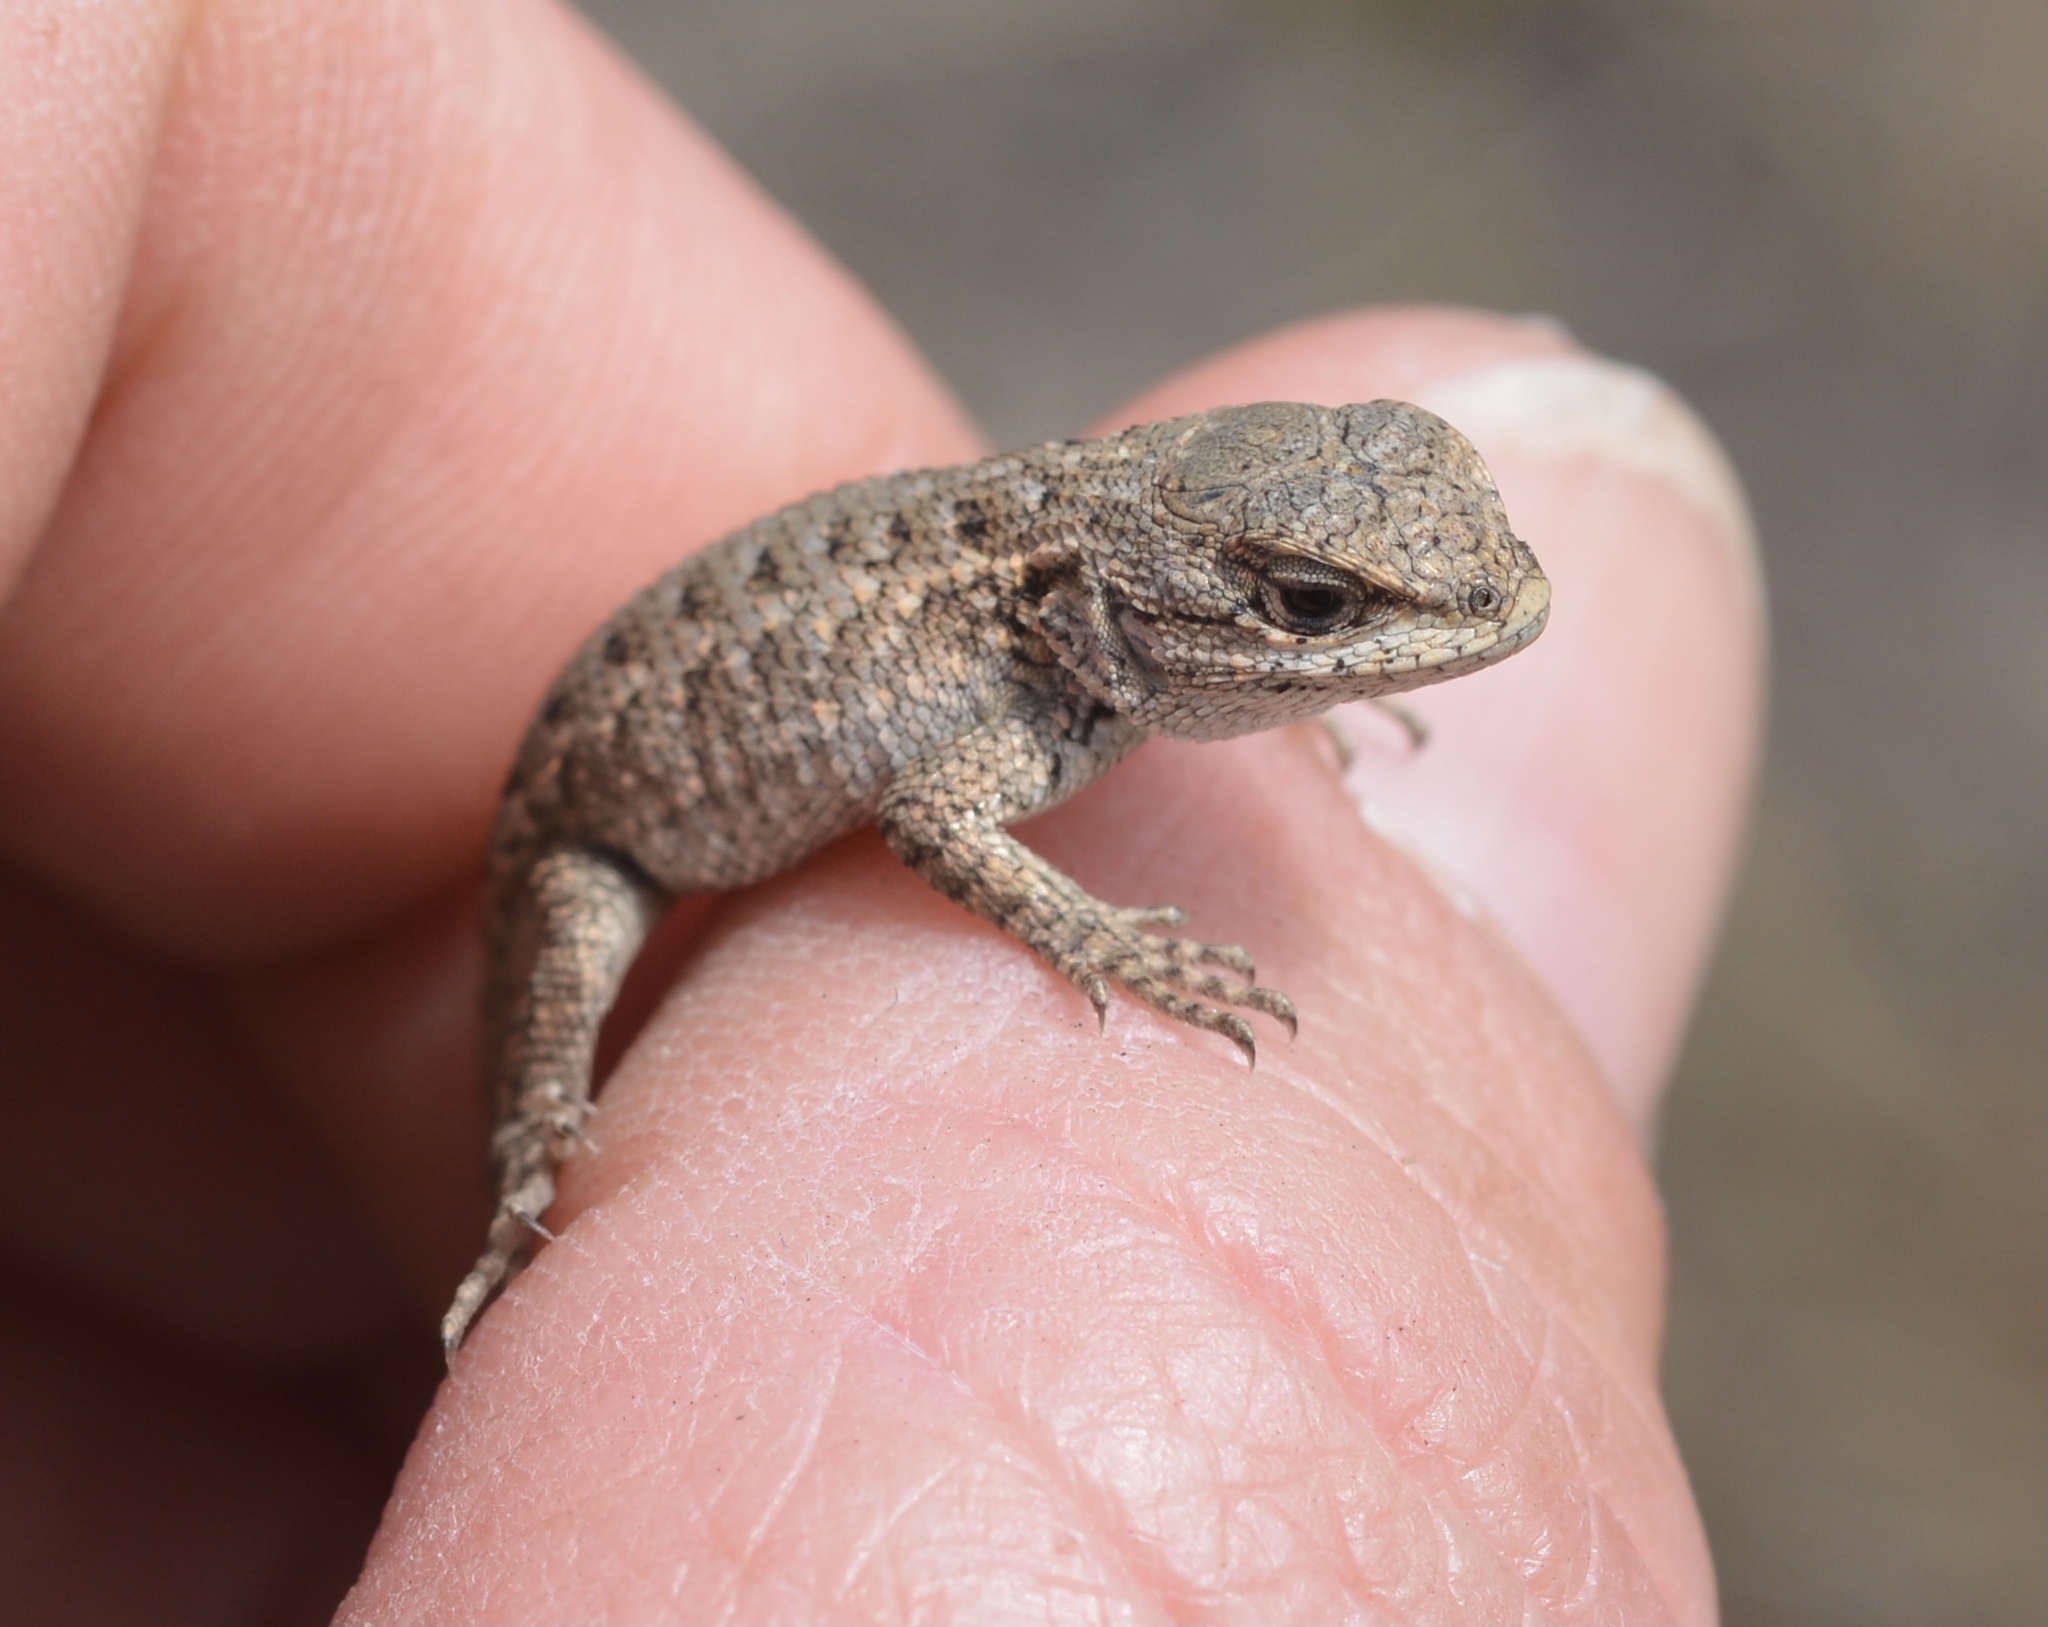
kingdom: Animalia
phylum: Chordata
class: Squamata
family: Phrynosomatidae
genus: Sceloporus
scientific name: Sceloporus occidentalis
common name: Western fence lizard
